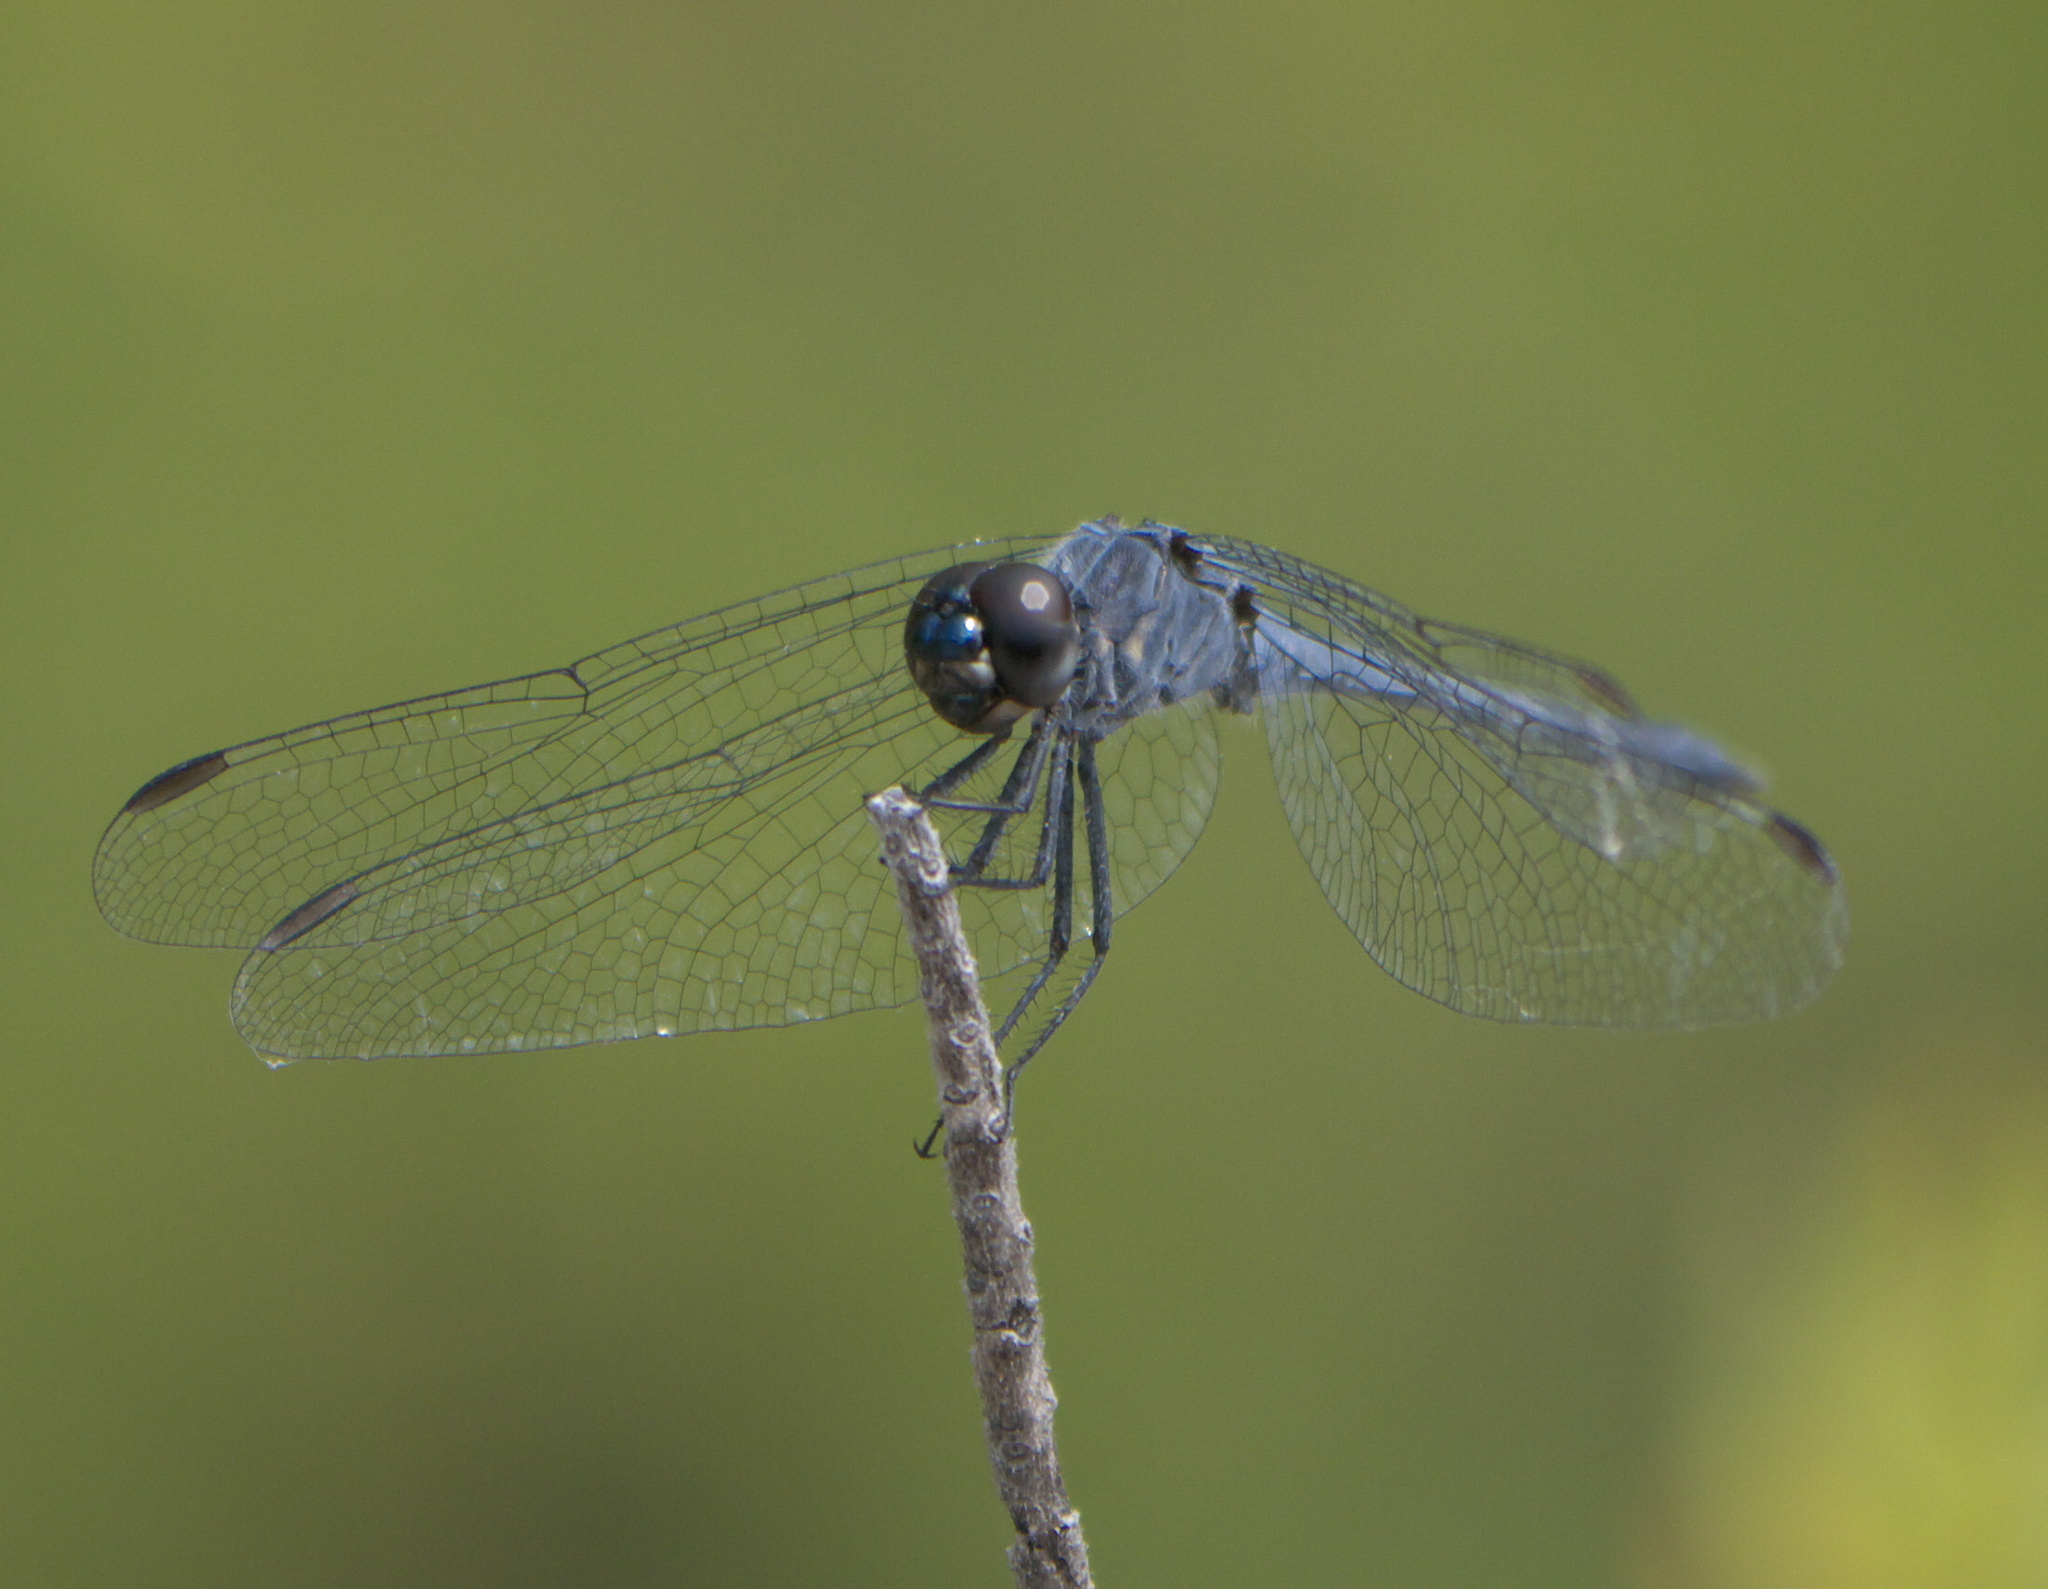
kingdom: Animalia
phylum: Arthropoda
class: Insecta
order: Odonata
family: Libellulidae
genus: Erythrodiplax
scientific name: Erythrodiplax berenice
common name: Seaside dragonlet
